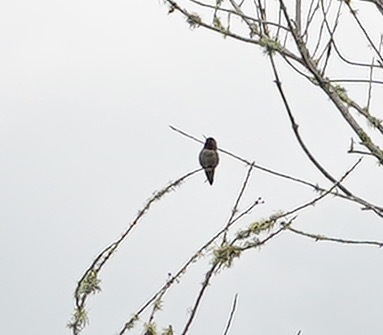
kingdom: Animalia
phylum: Chordata
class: Aves
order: Apodiformes
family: Trochilidae
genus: Calypte
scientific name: Calypte anna
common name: Anna's hummingbird
